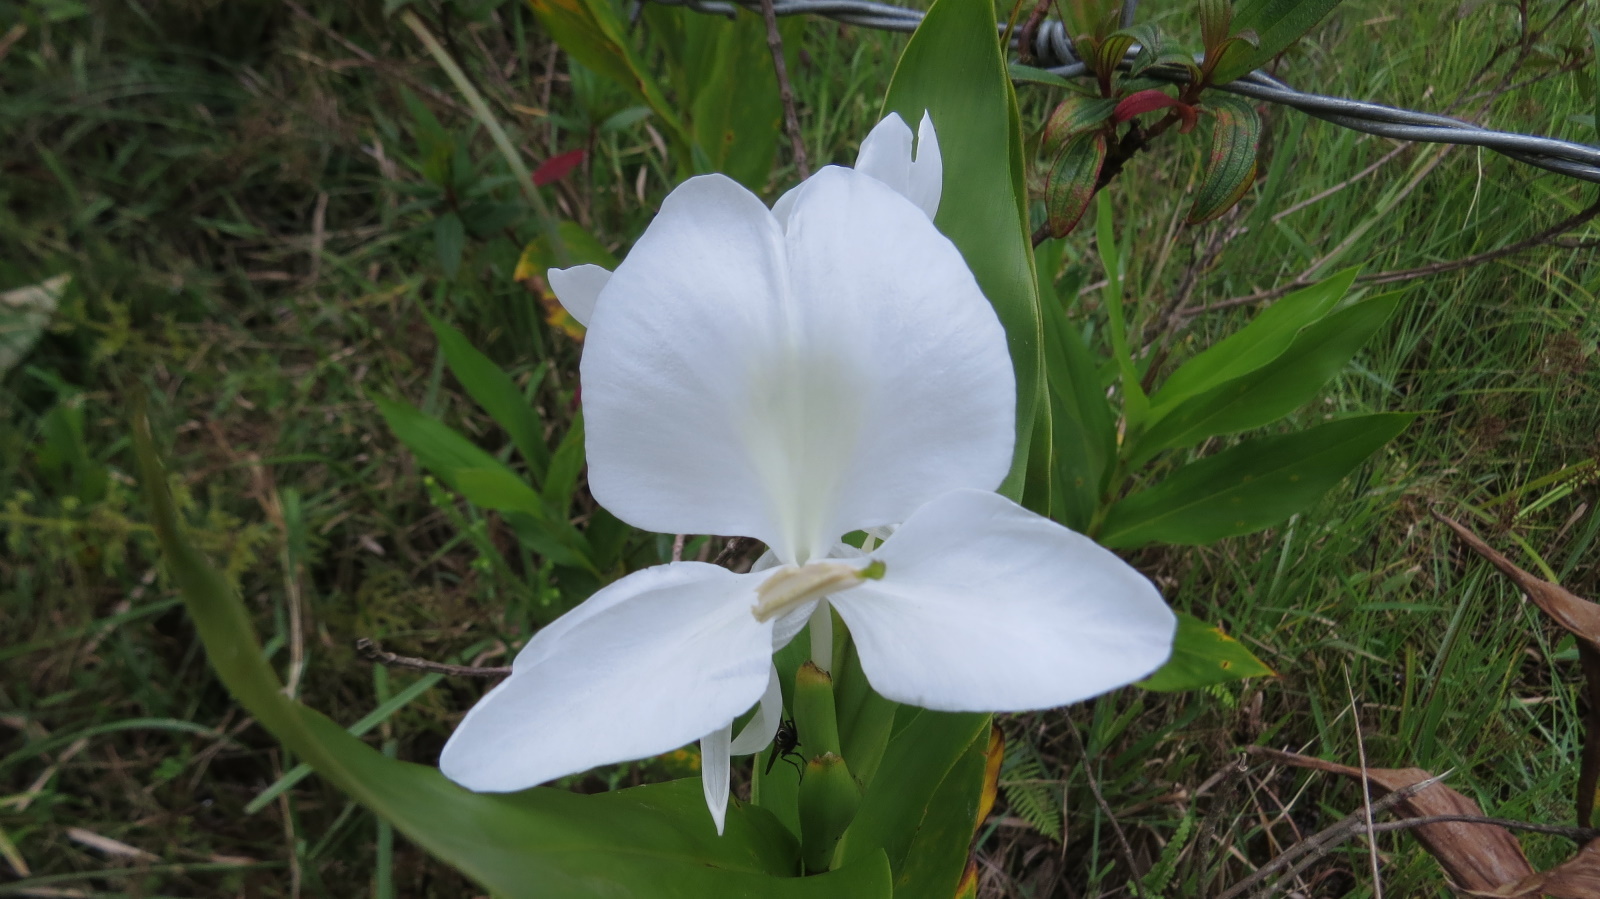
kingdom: Plantae
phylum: Tracheophyta
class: Liliopsida
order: Zingiberales
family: Zingiberaceae
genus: Hedychium
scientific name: Hedychium coronarium
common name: White garland-lily
